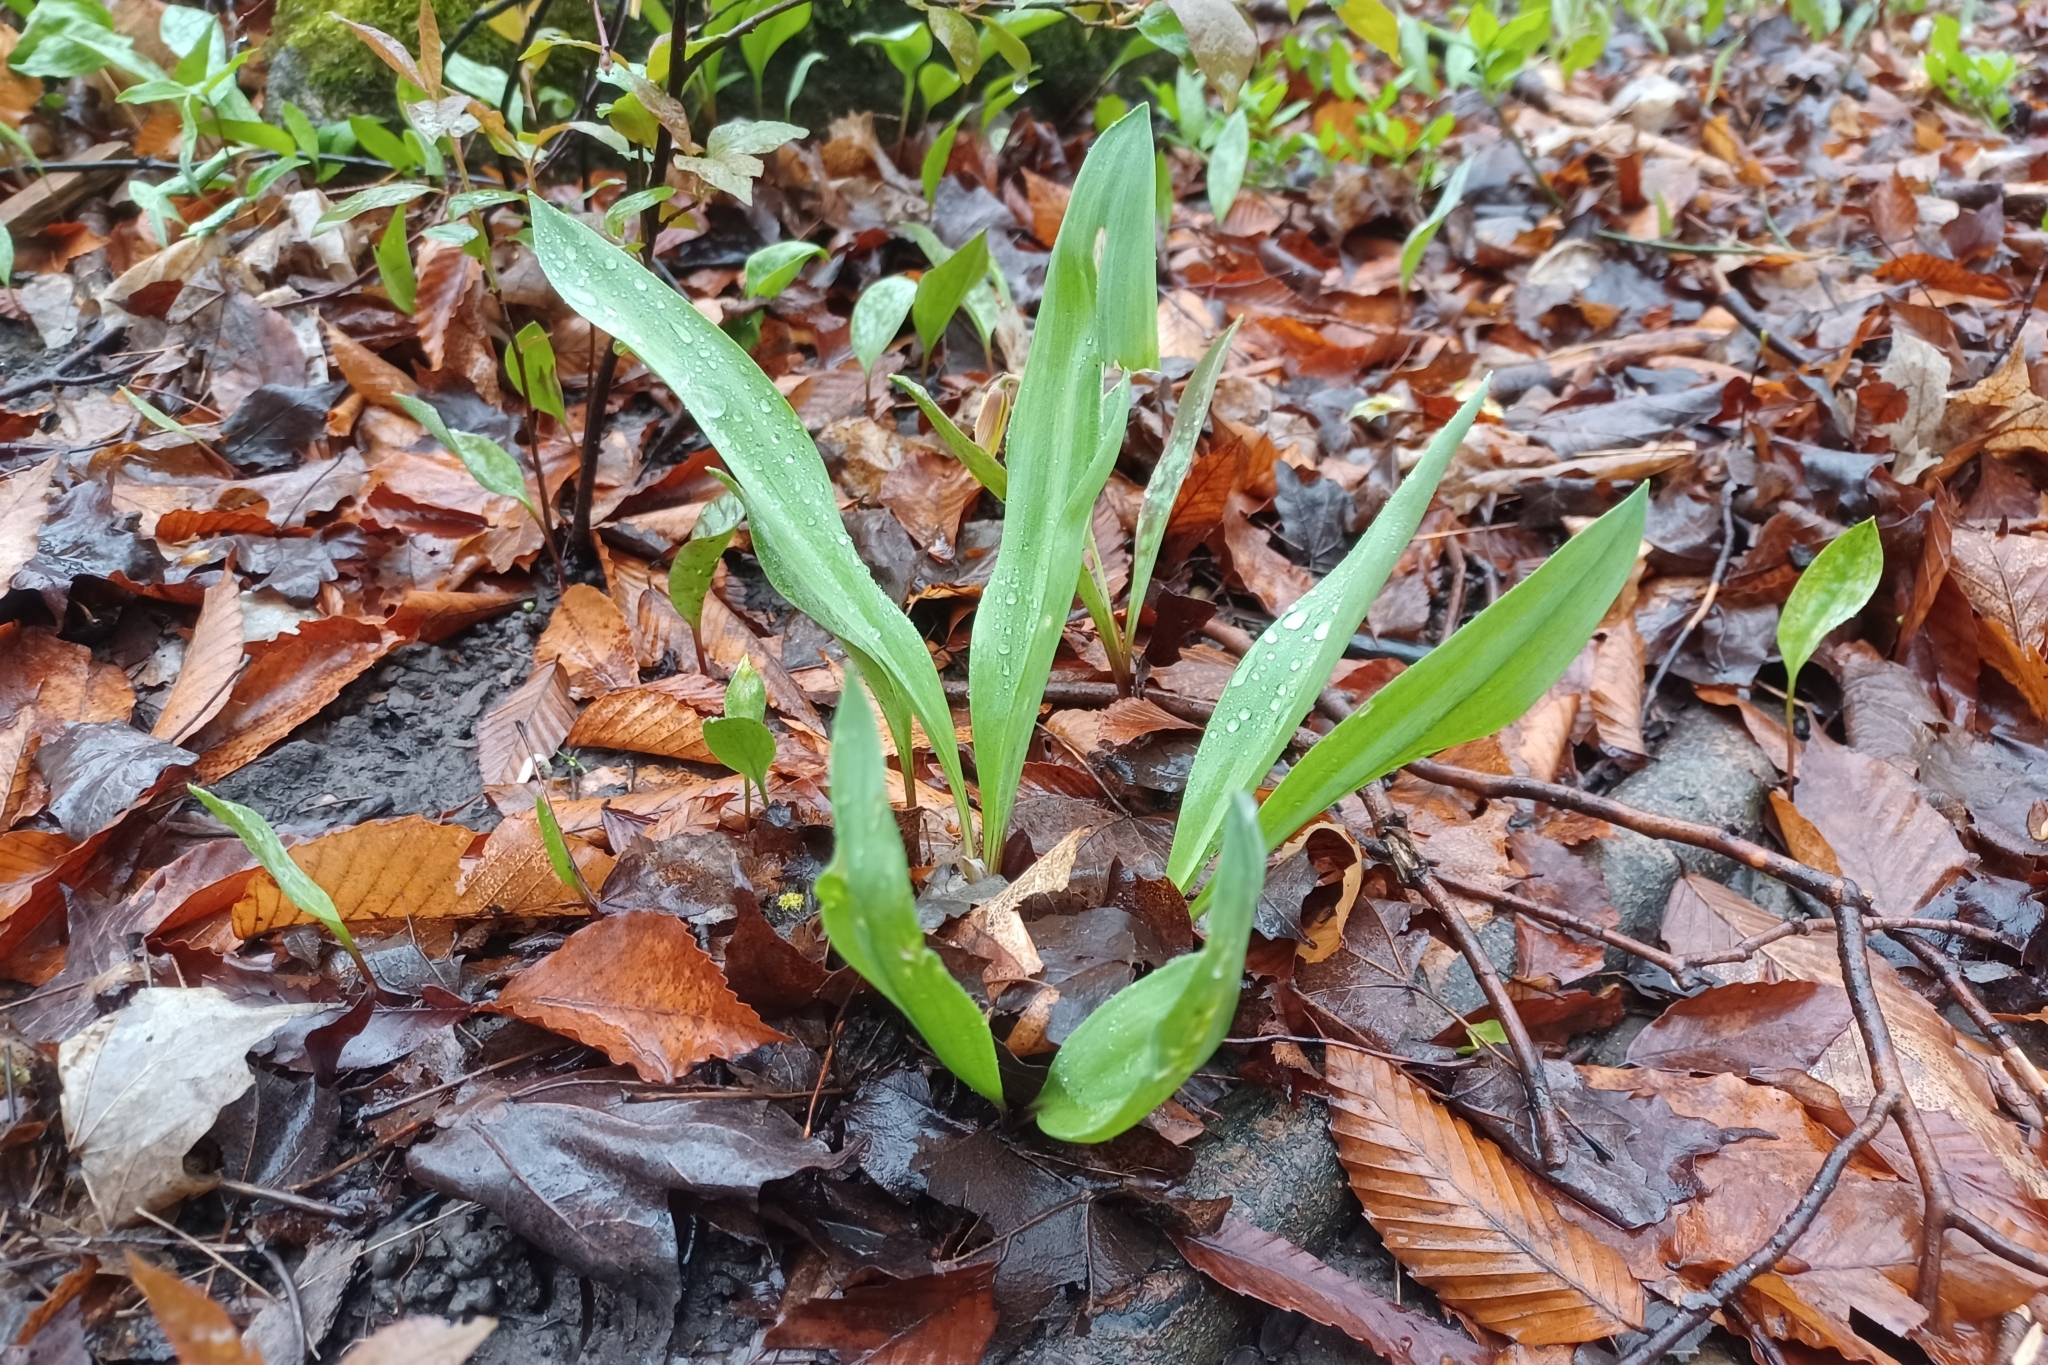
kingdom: Plantae
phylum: Tracheophyta
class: Liliopsida
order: Asparagales
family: Amaryllidaceae
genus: Allium
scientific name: Allium tricoccum
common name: Ramp
